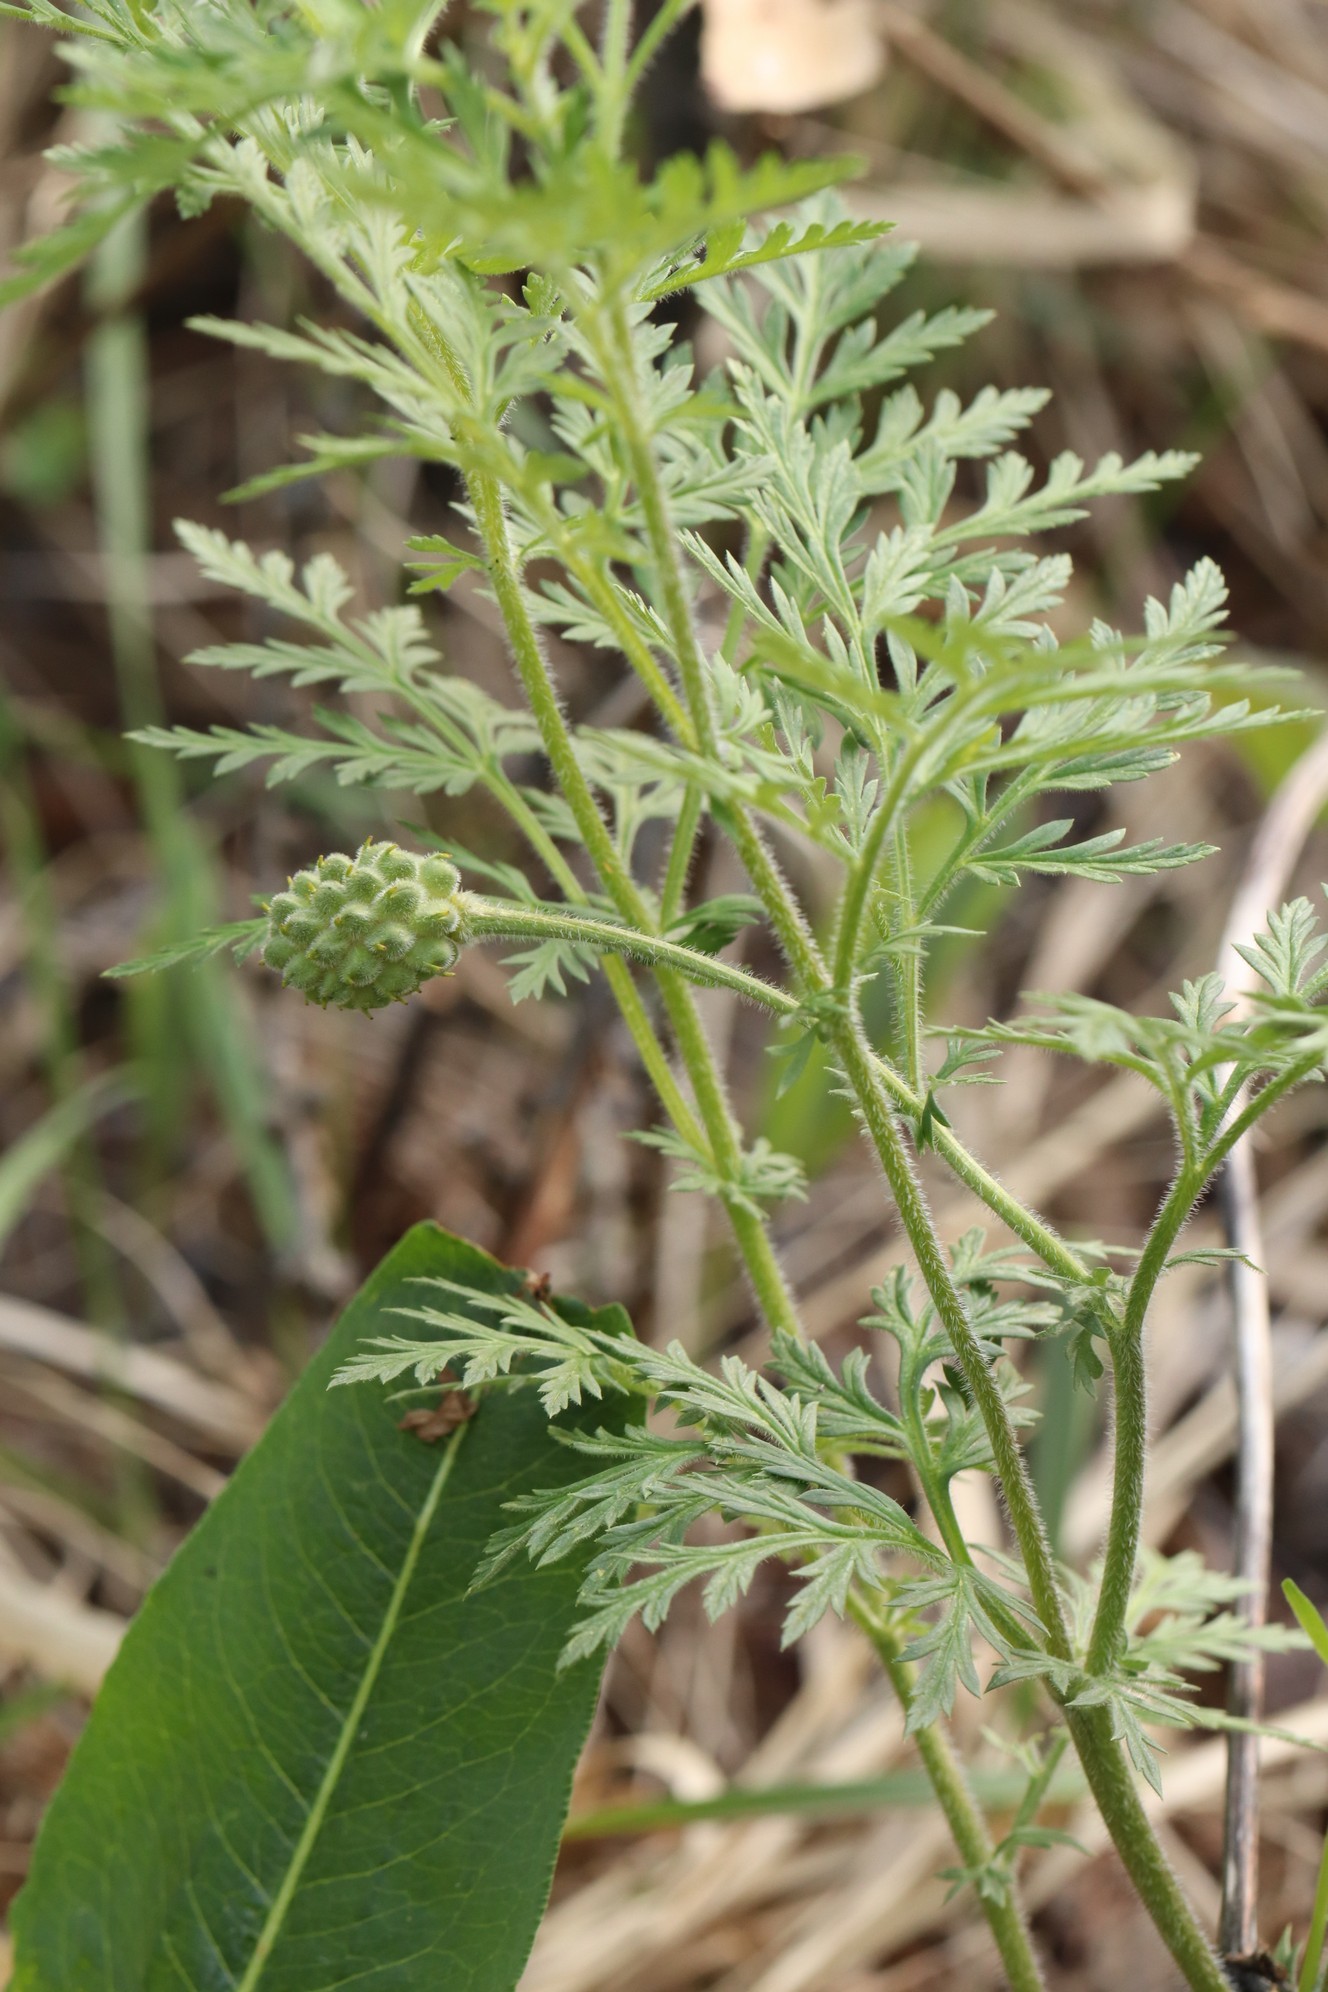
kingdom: Plantae
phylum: Tracheophyta
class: Magnoliopsida
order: Ranunculales
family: Ranunculaceae
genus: Adonis
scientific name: Adonis villosa
